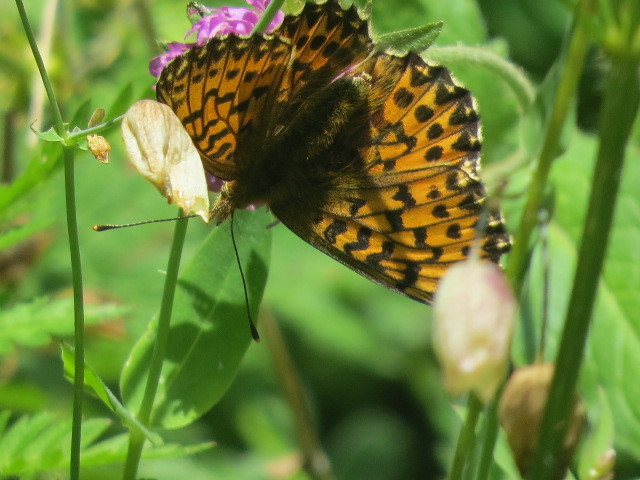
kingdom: Animalia
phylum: Arthropoda
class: Insecta
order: Lepidoptera
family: Nymphalidae
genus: Boloria
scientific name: Boloria titania
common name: Titania's fritillary
